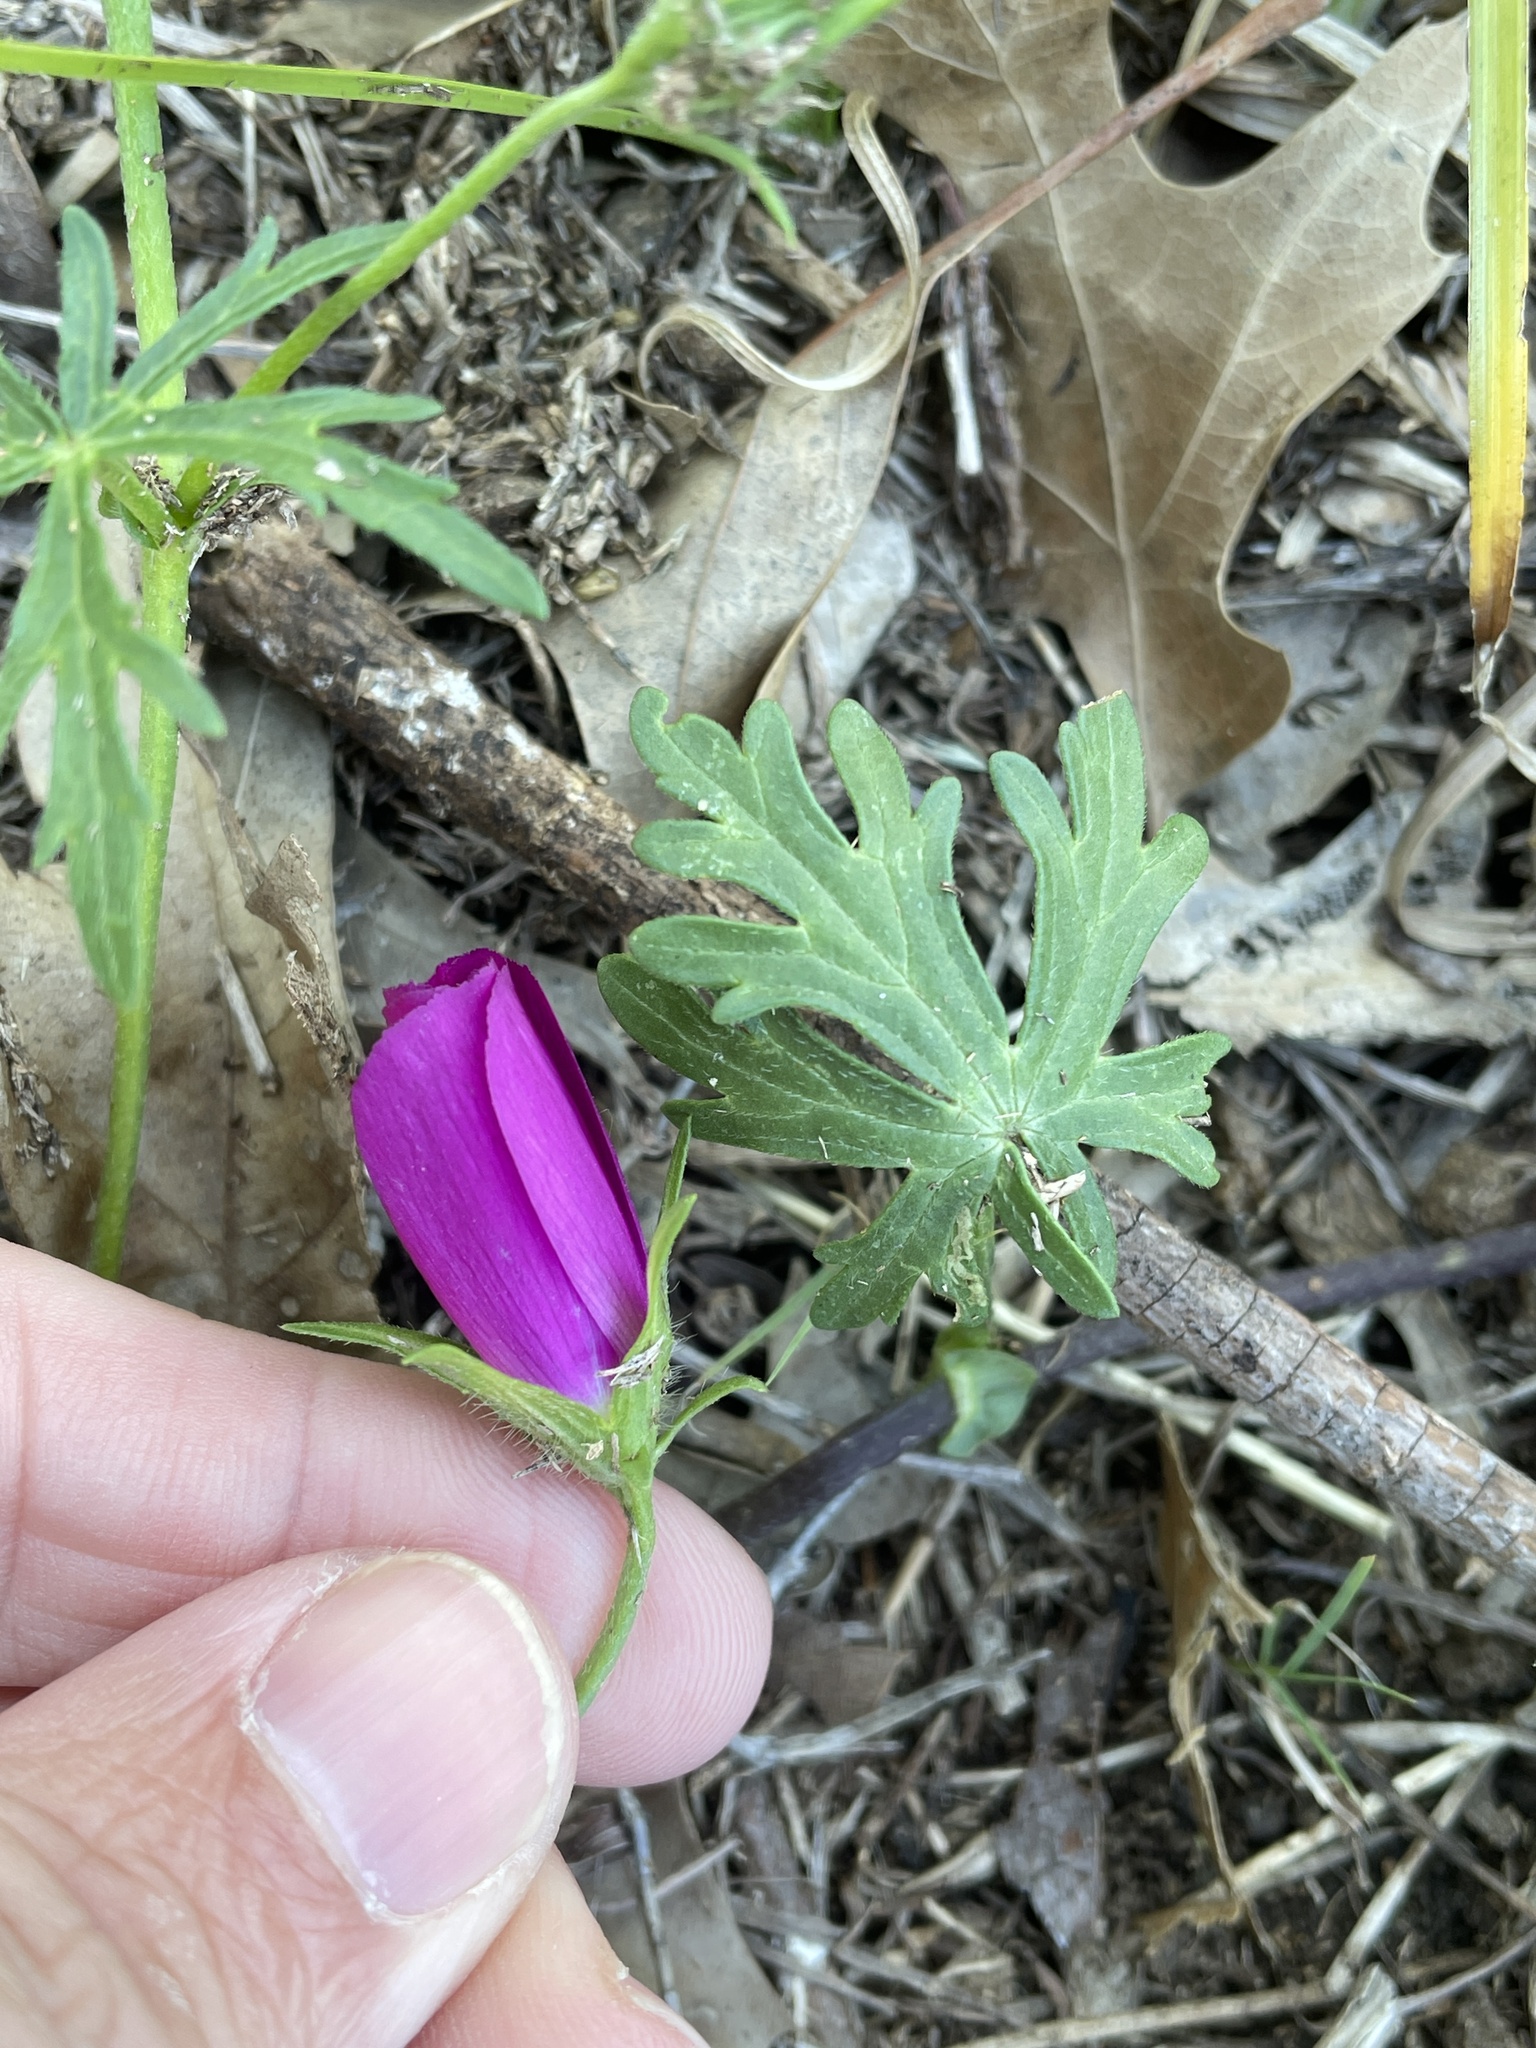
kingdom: Plantae
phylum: Tracheophyta
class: Magnoliopsida
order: Malvales
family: Malvaceae
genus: Callirhoe
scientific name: Callirhoe involucrata
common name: Purple poppy-mallow
